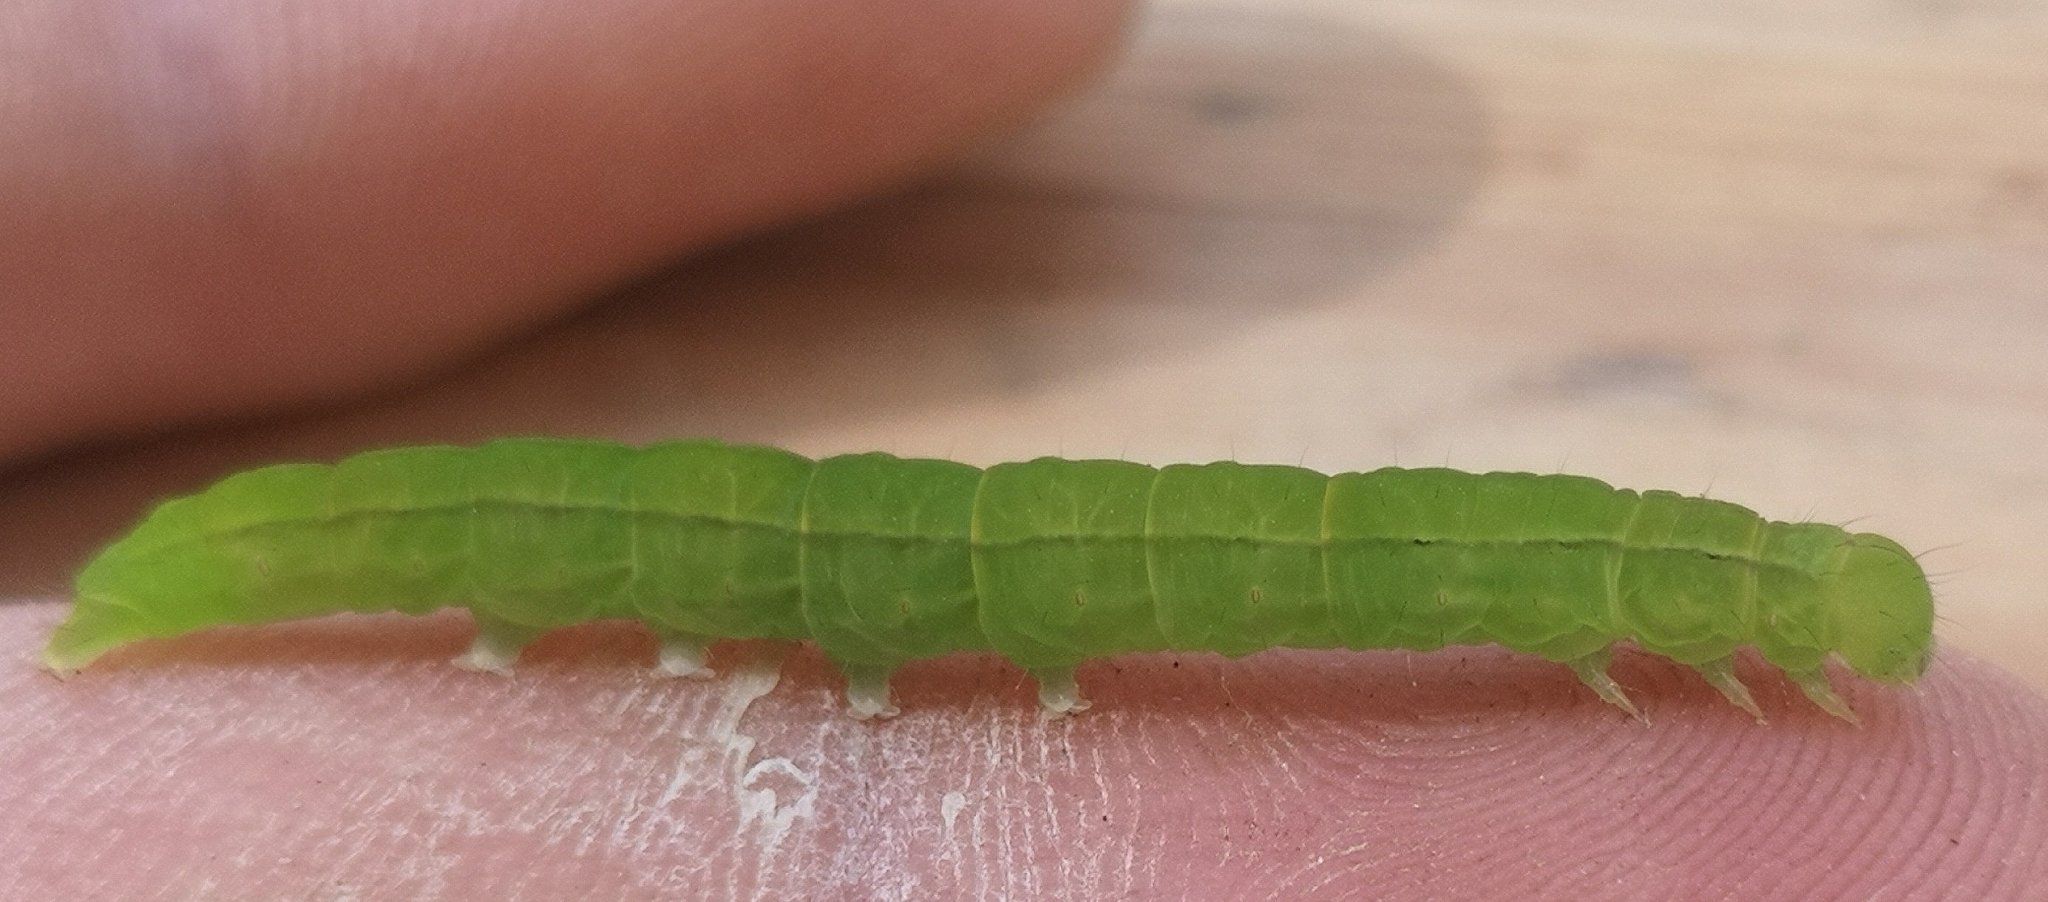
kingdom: Animalia
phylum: Arthropoda
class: Insecta
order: Lepidoptera
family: Erebidae
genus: Scoliopteryx
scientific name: Scoliopteryx libatrix
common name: Herald
